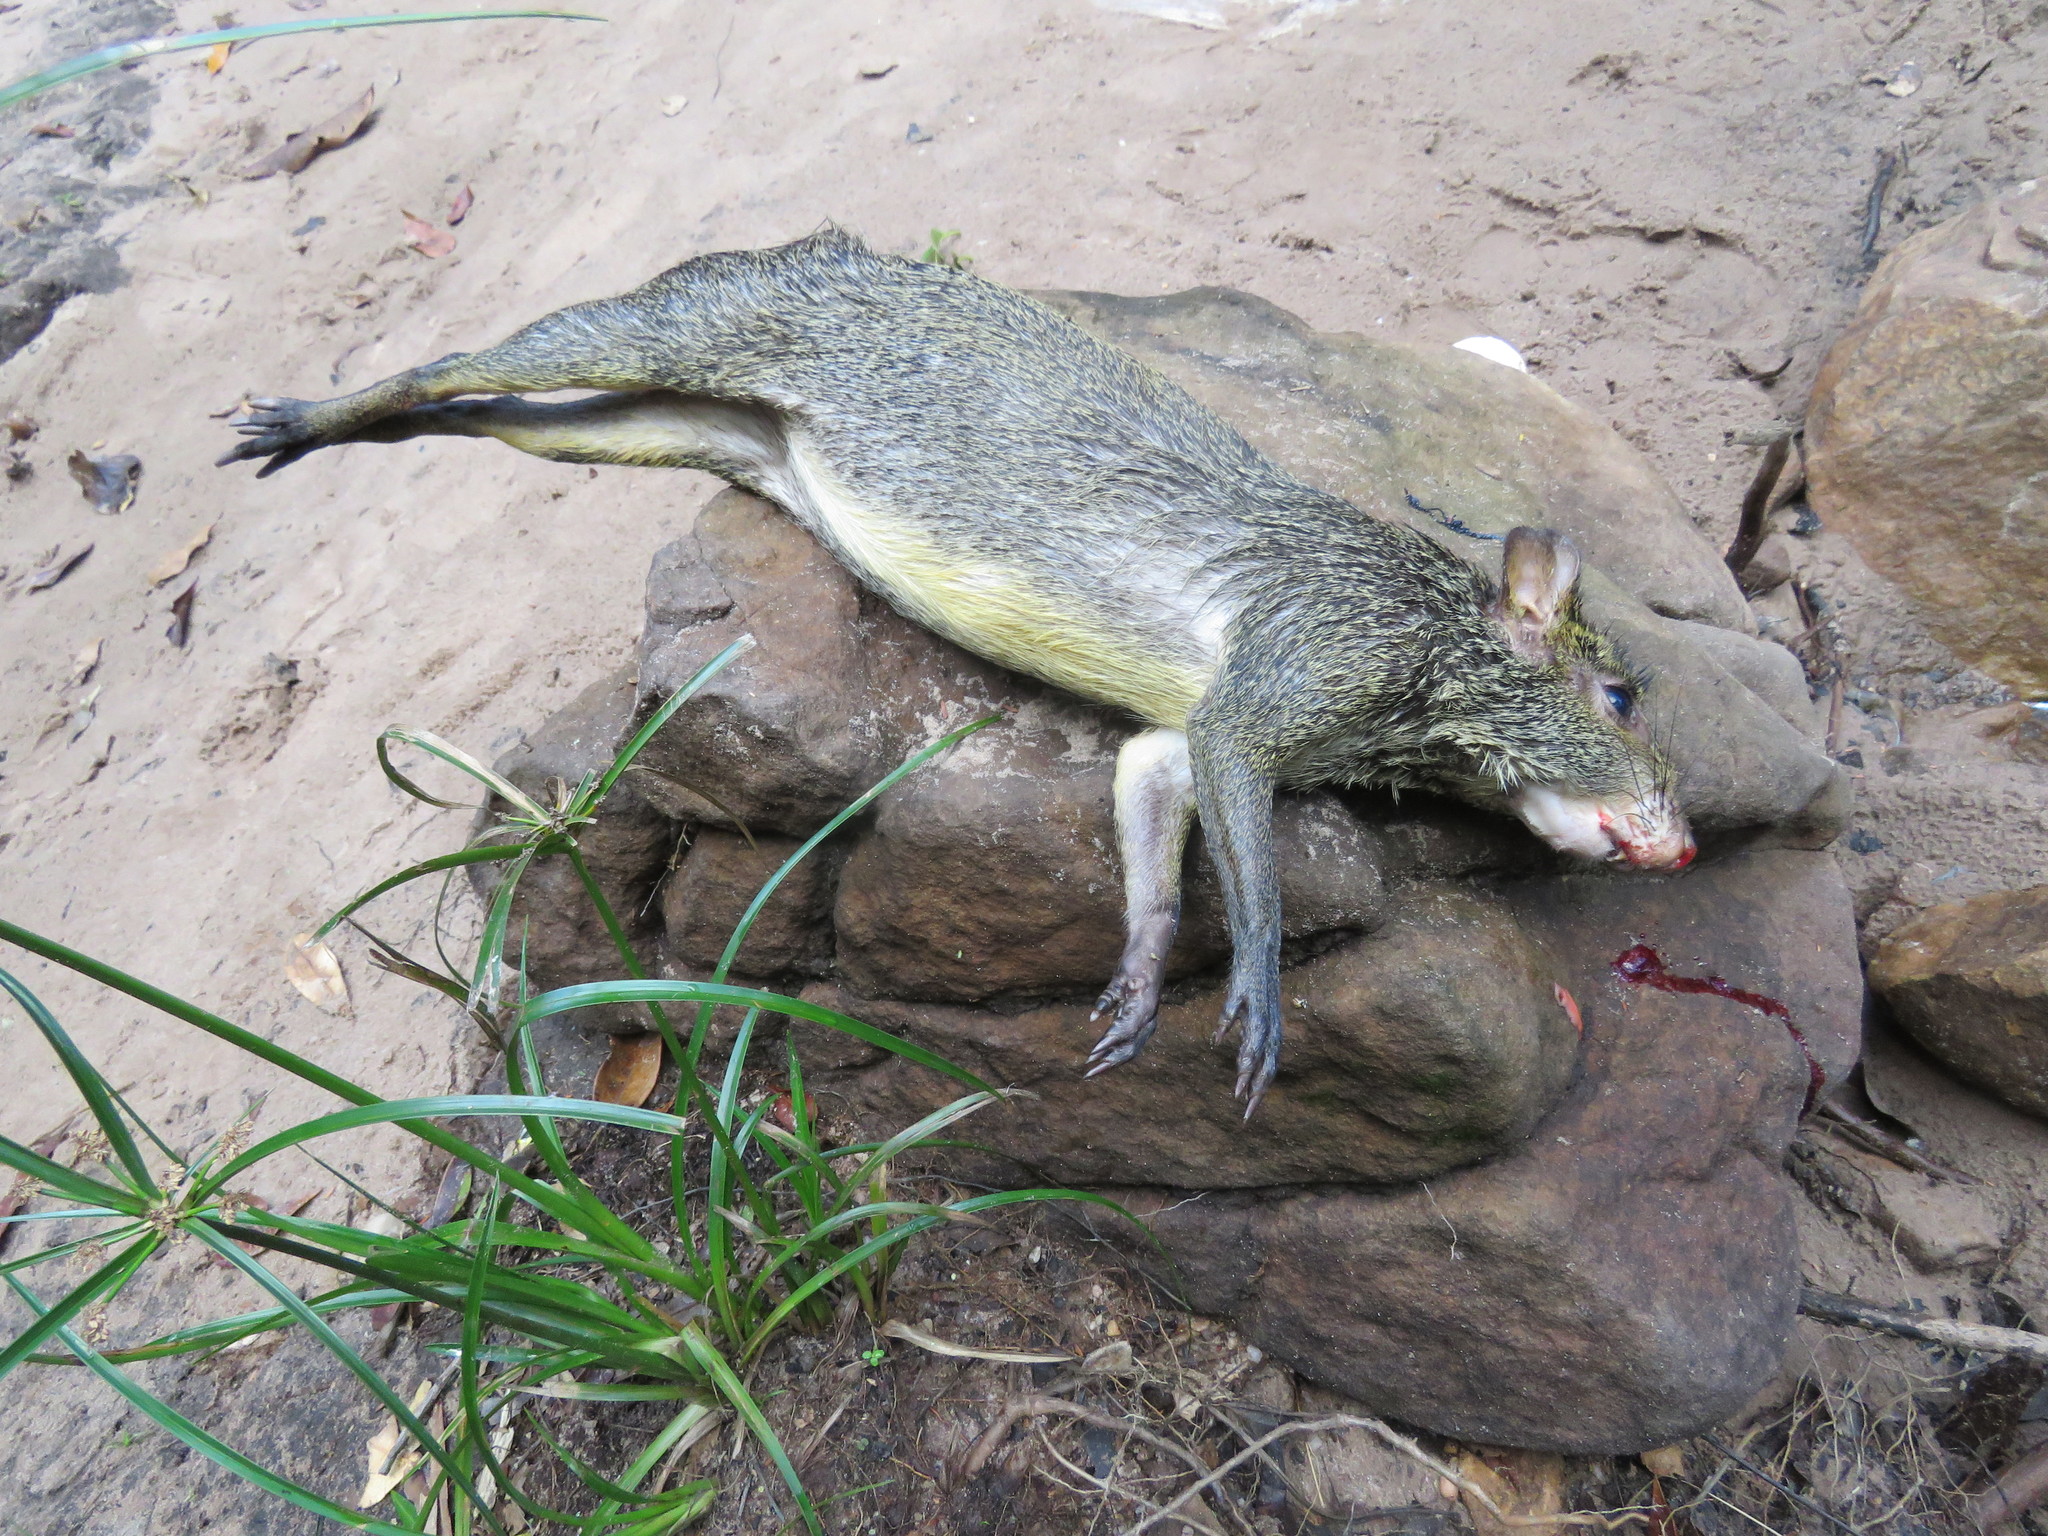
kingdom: Animalia
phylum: Chordata
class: Mammalia
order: Rodentia
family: Dasyproctidae
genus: Dasyprocta
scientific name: Dasyprocta azarae
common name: Azara's agouti
